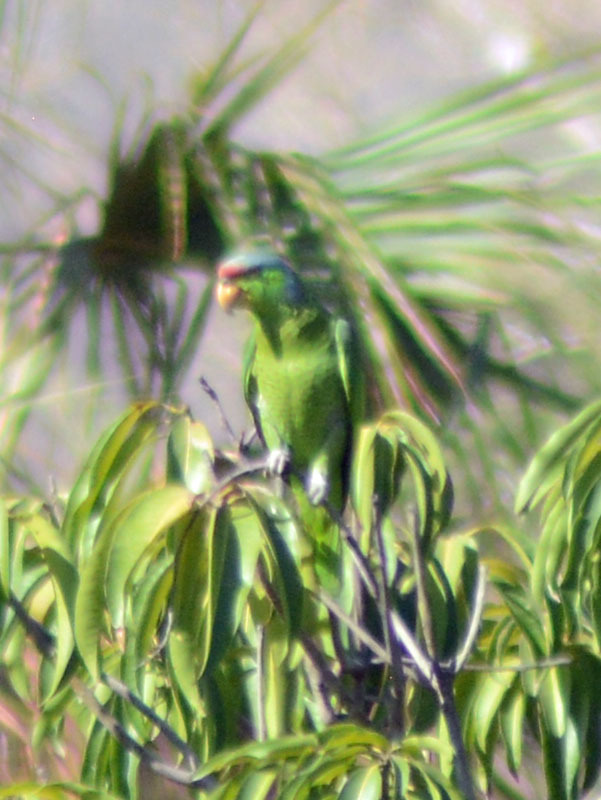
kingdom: Animalia
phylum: Chordata
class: Aves
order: Psittaciformes
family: Psittacidae
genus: Amazona
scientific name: Amazona finschi
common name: Lilac-crowned amazon
